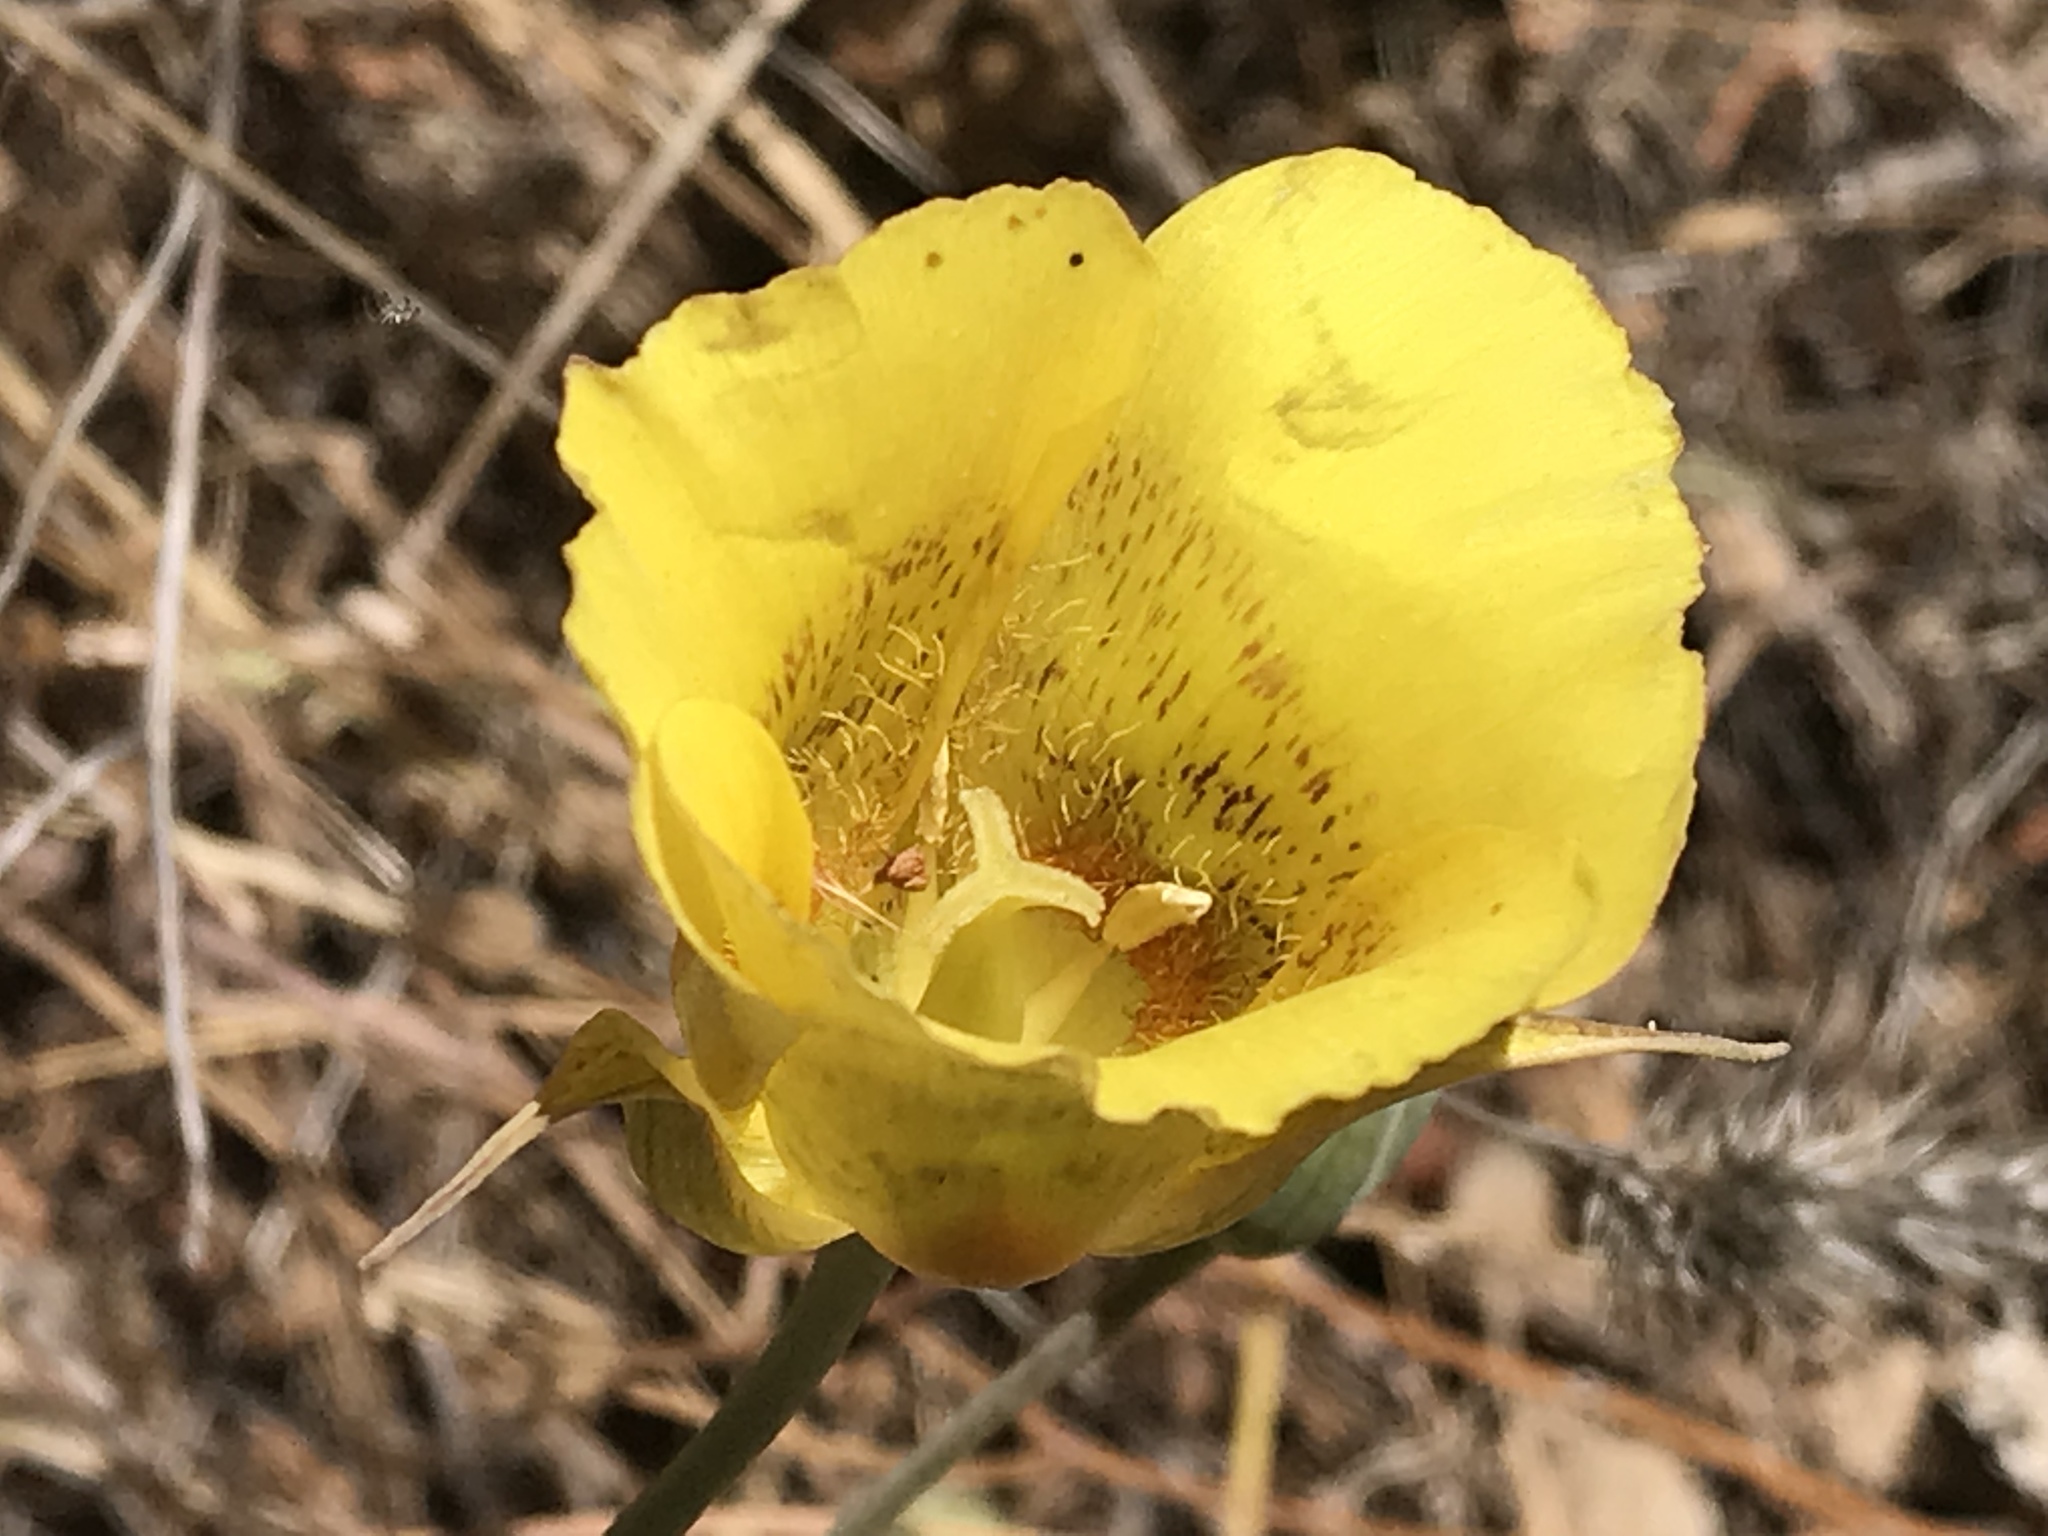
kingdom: Plantae
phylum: Tracheophyta
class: Liliopsida
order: Liliales
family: Liliaceae
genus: Calochortus
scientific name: Calochortus luteus
